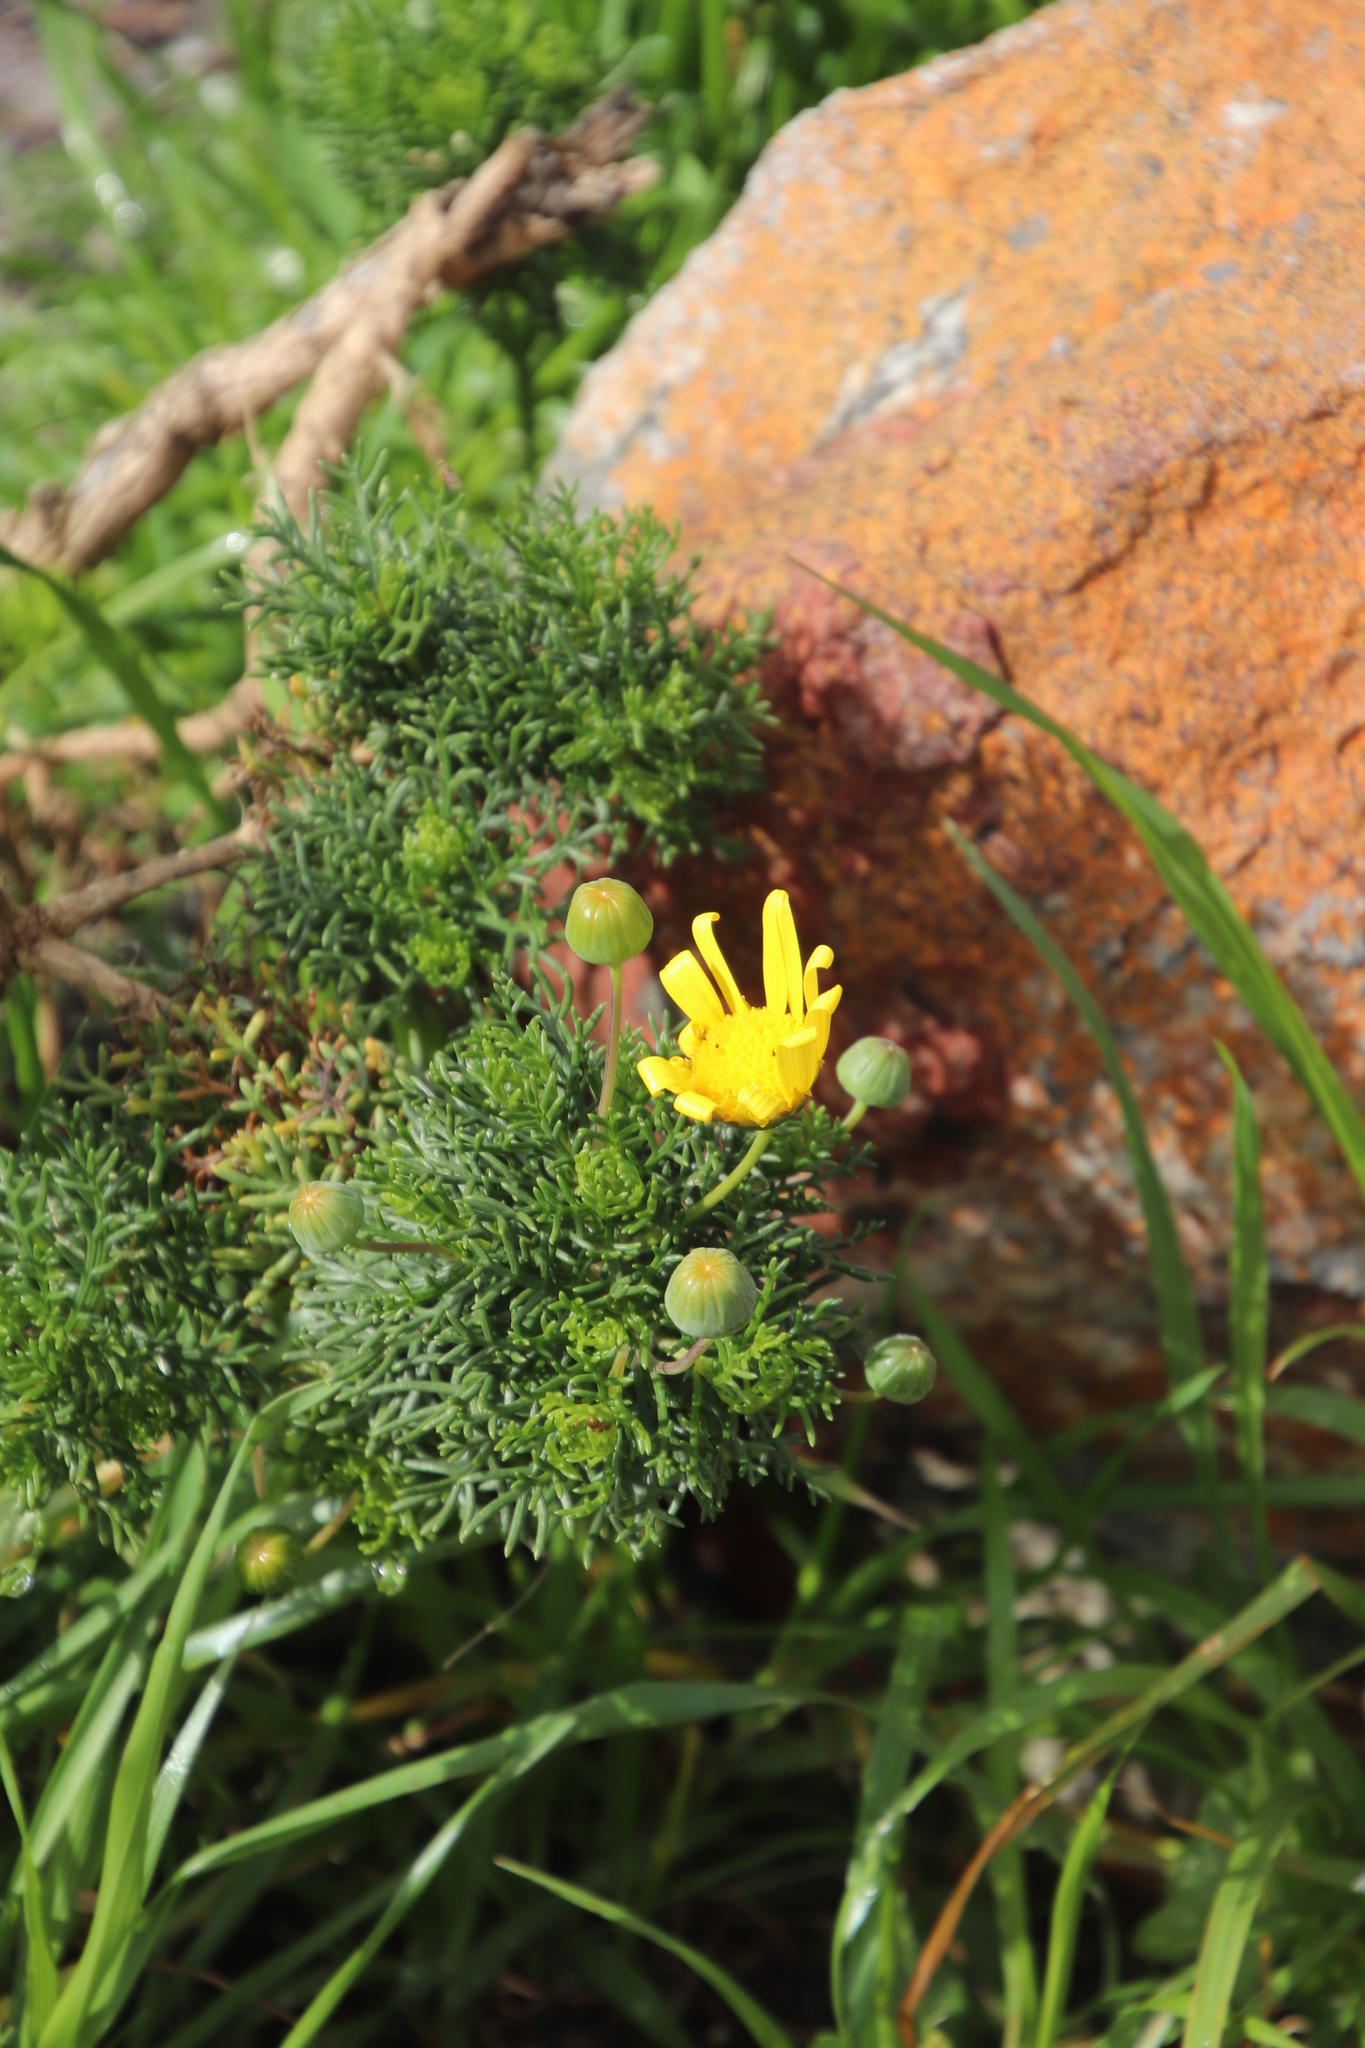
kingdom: Plantae
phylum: Tracheophyta
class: Magnoliopsida
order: Asterales
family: Asteraceae
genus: Euryops
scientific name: Euryops abrotanifolius
